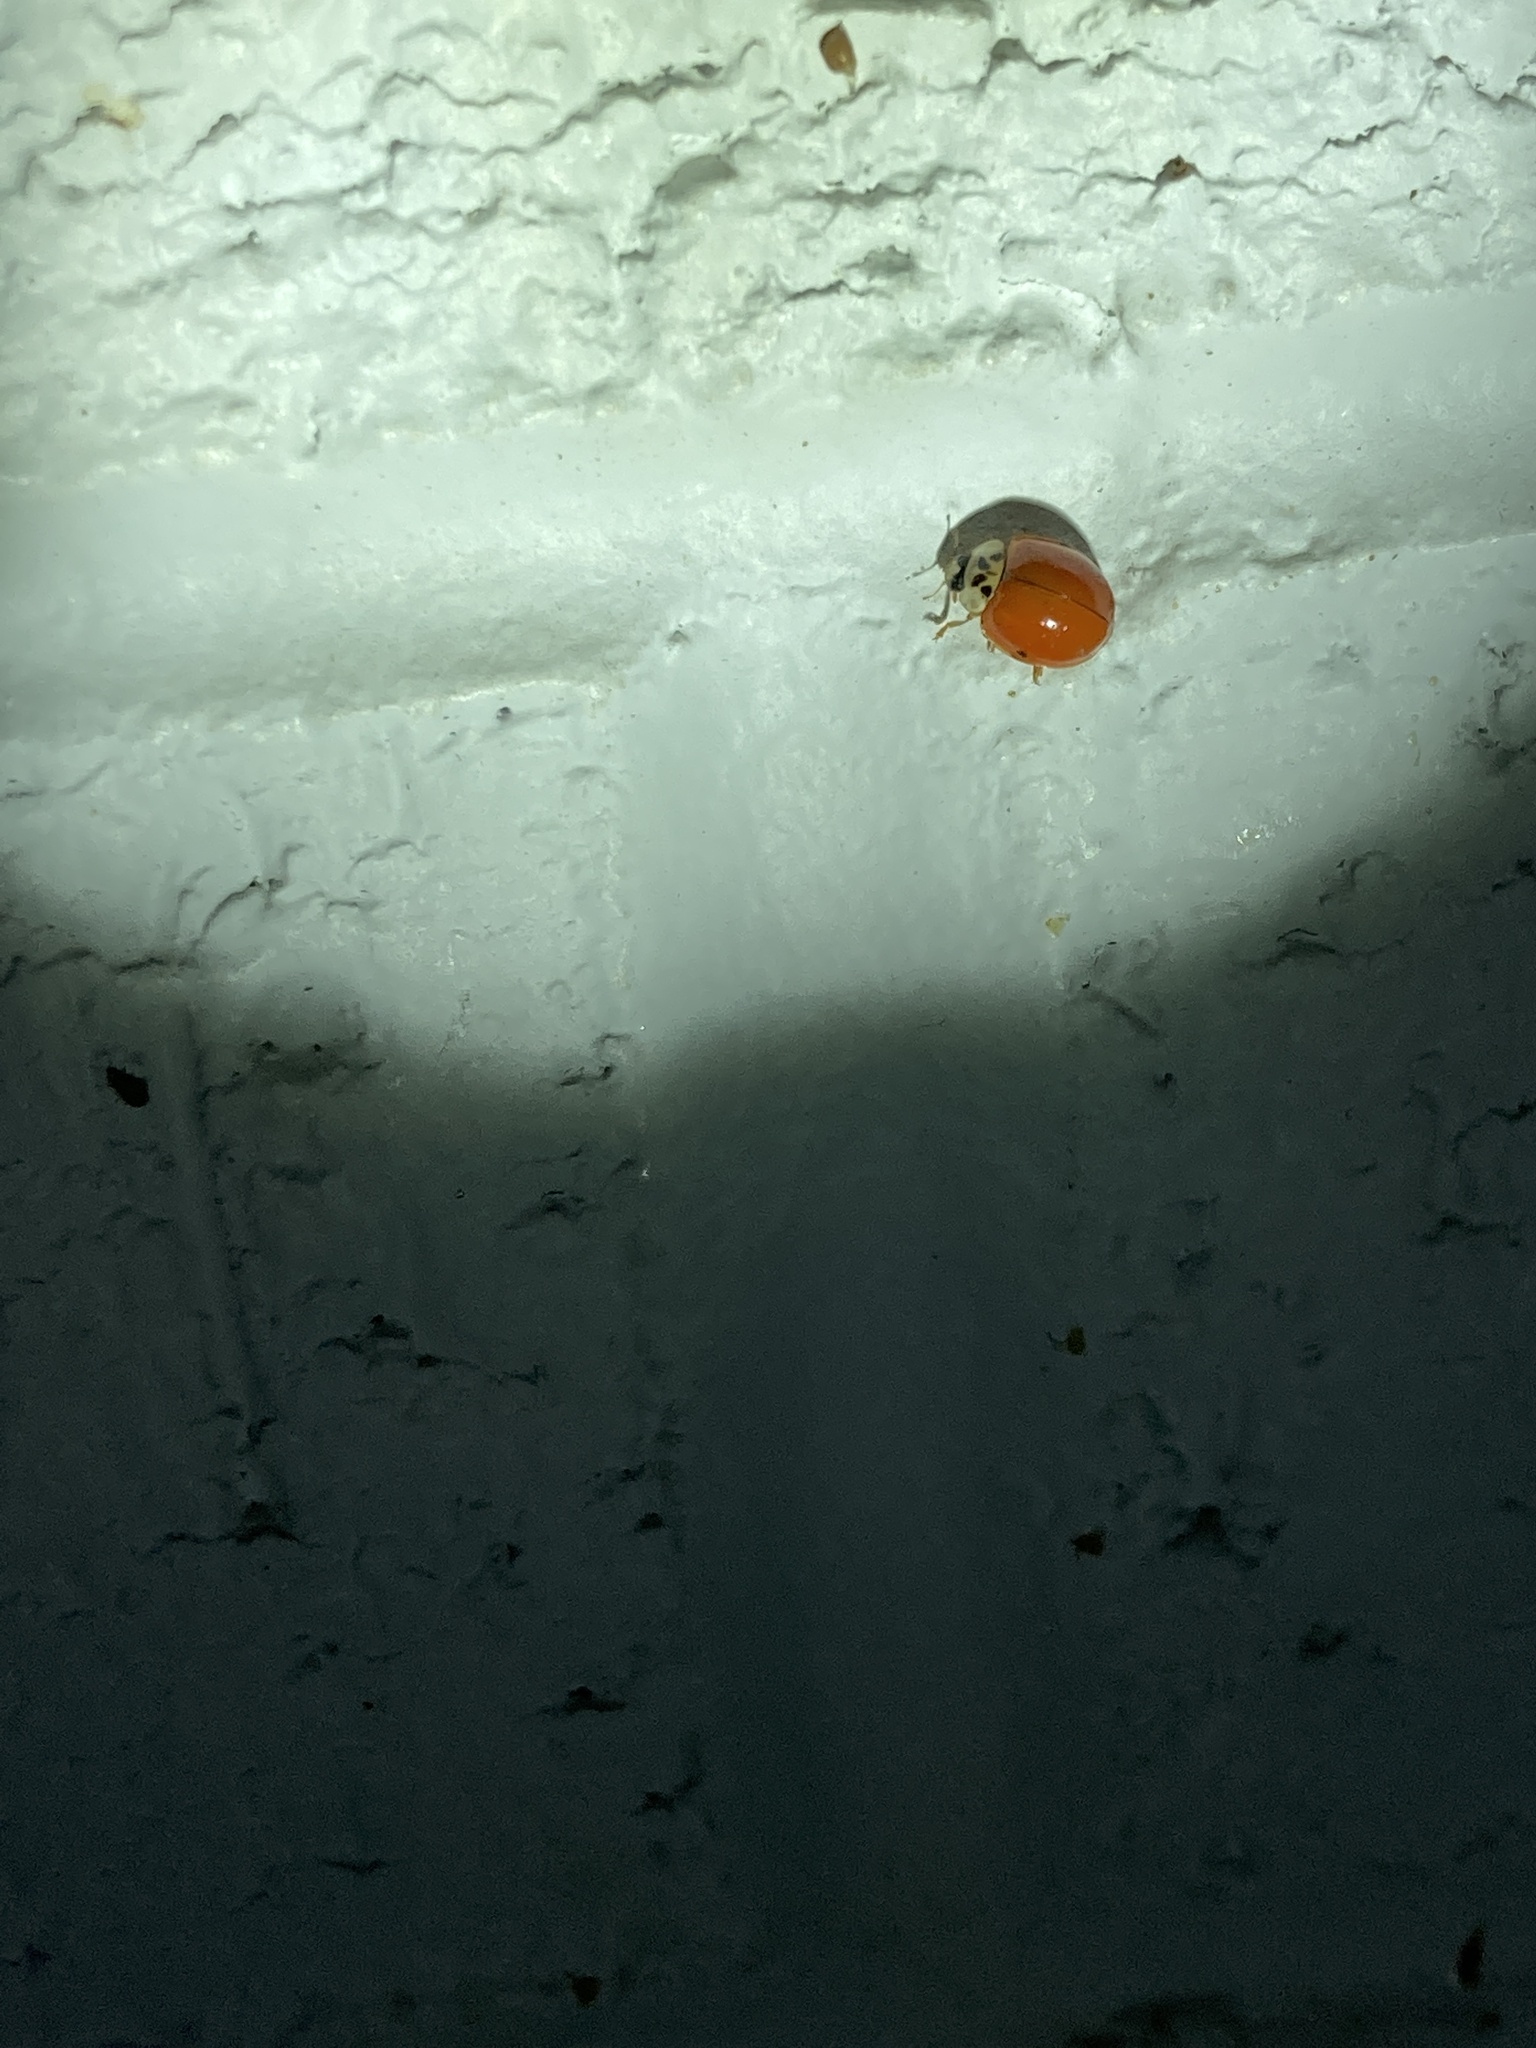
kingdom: Animalia
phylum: Arthropoda
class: Insecta
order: Coleoptera
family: Coccinellidae
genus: Harmonia
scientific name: Harmonia axyridis
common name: Harlequin ladybird
